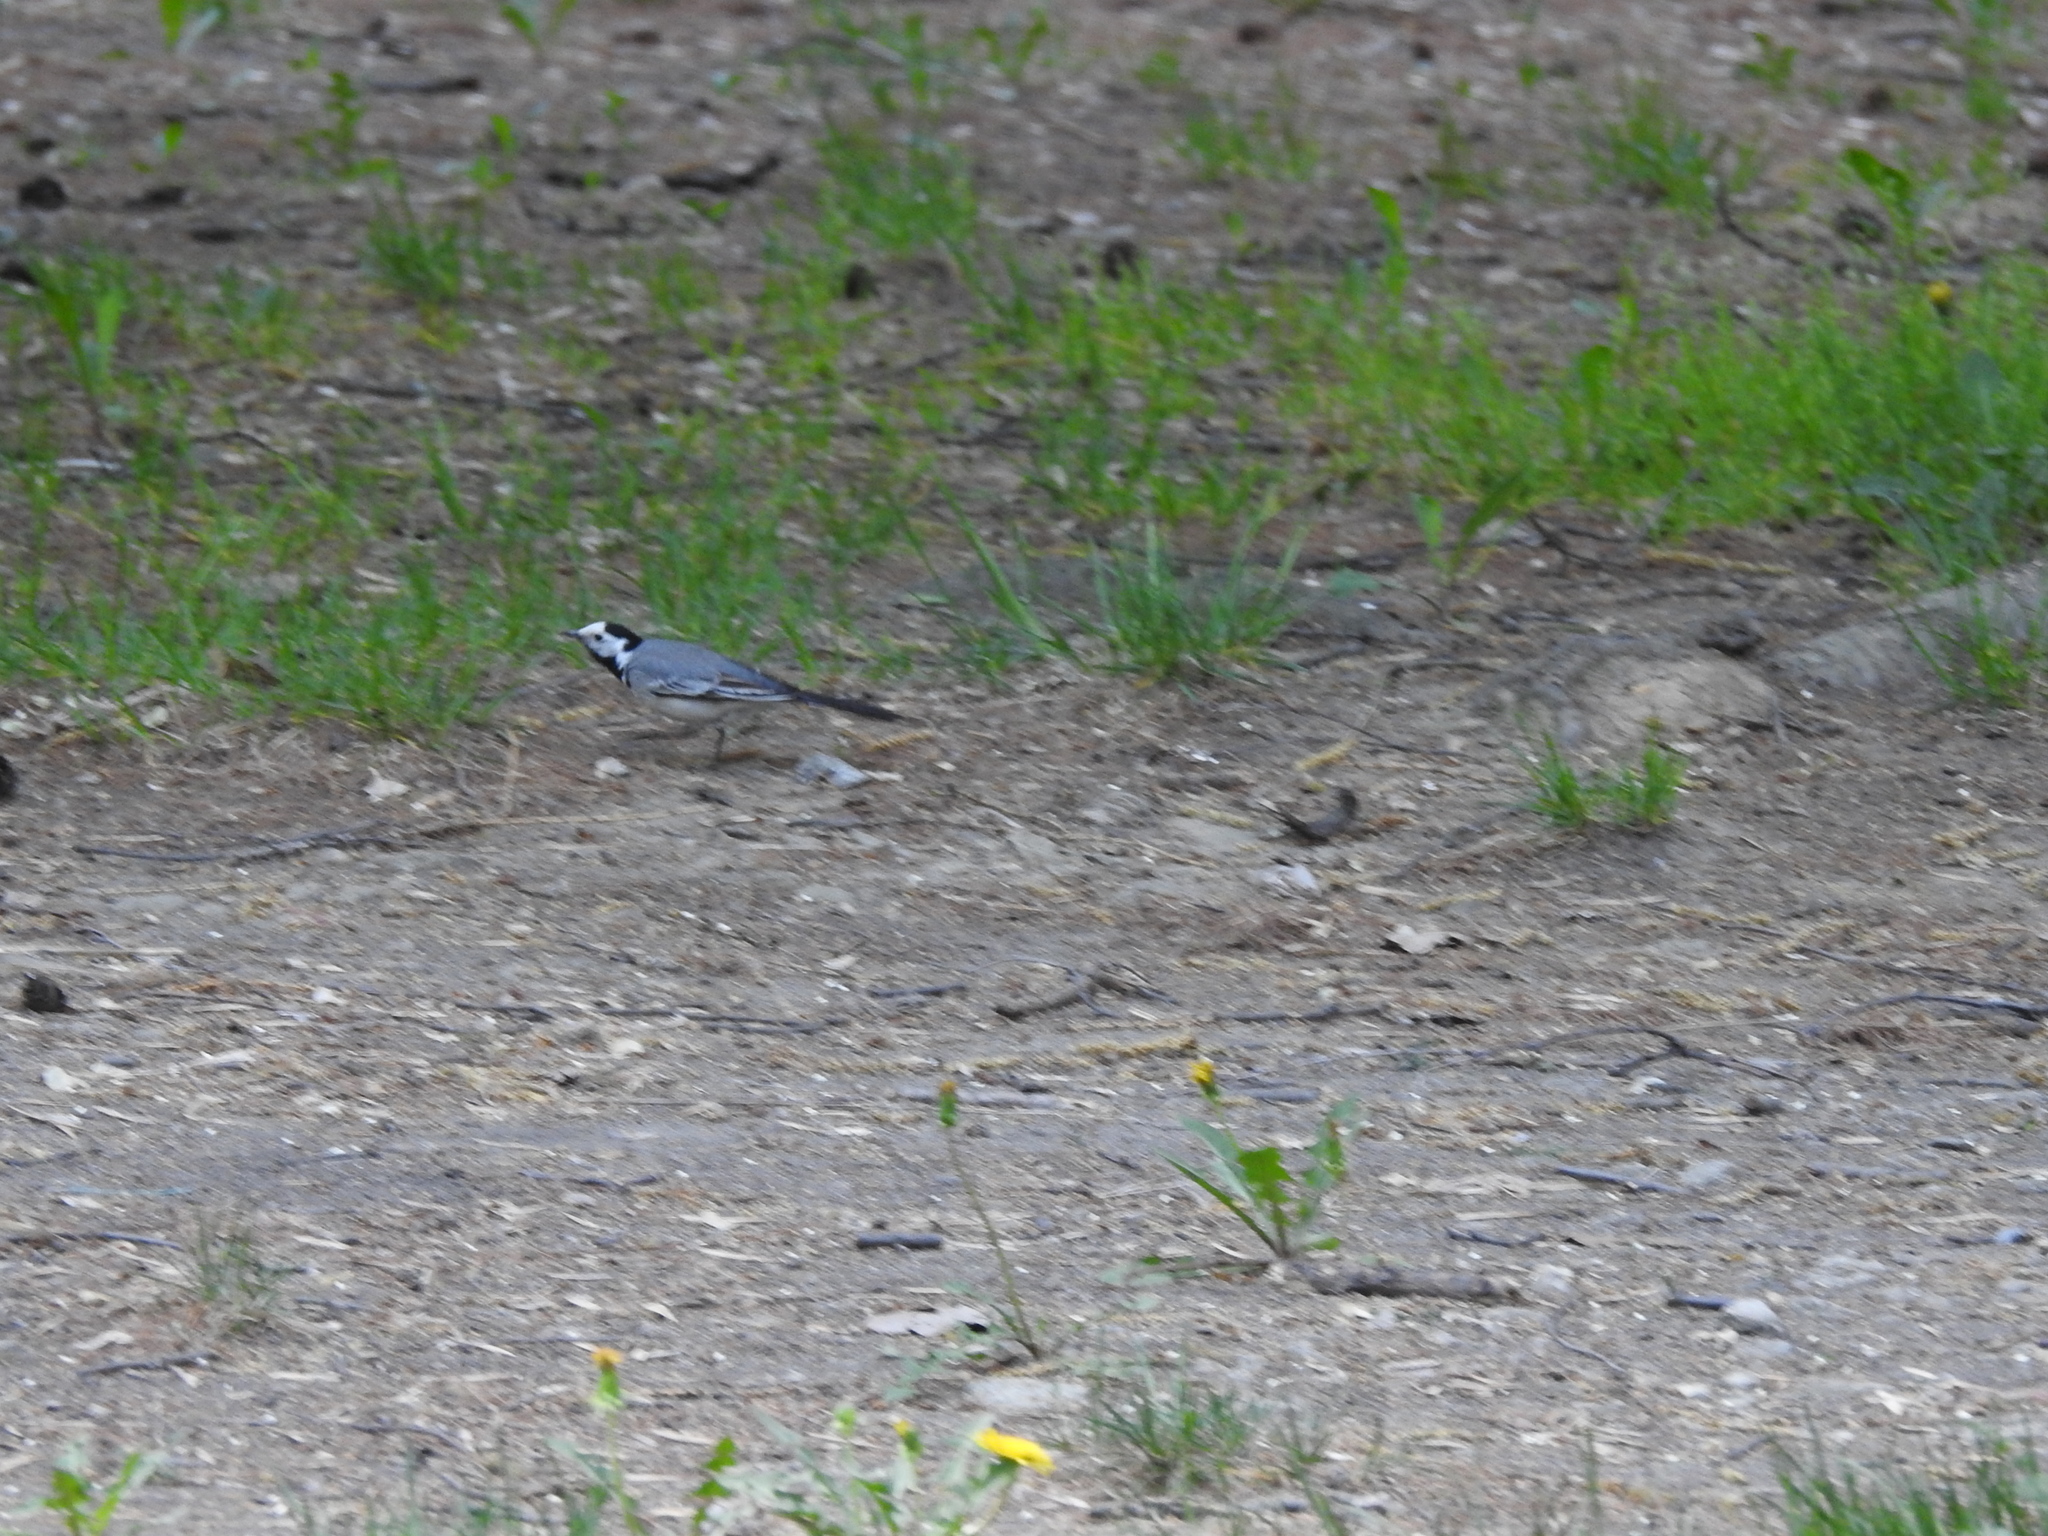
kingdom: Animalia
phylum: Chordata
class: Aves
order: Passeriformes
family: Motacillidae
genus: Motacilla
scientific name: Motacilla alba
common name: White wagtail
